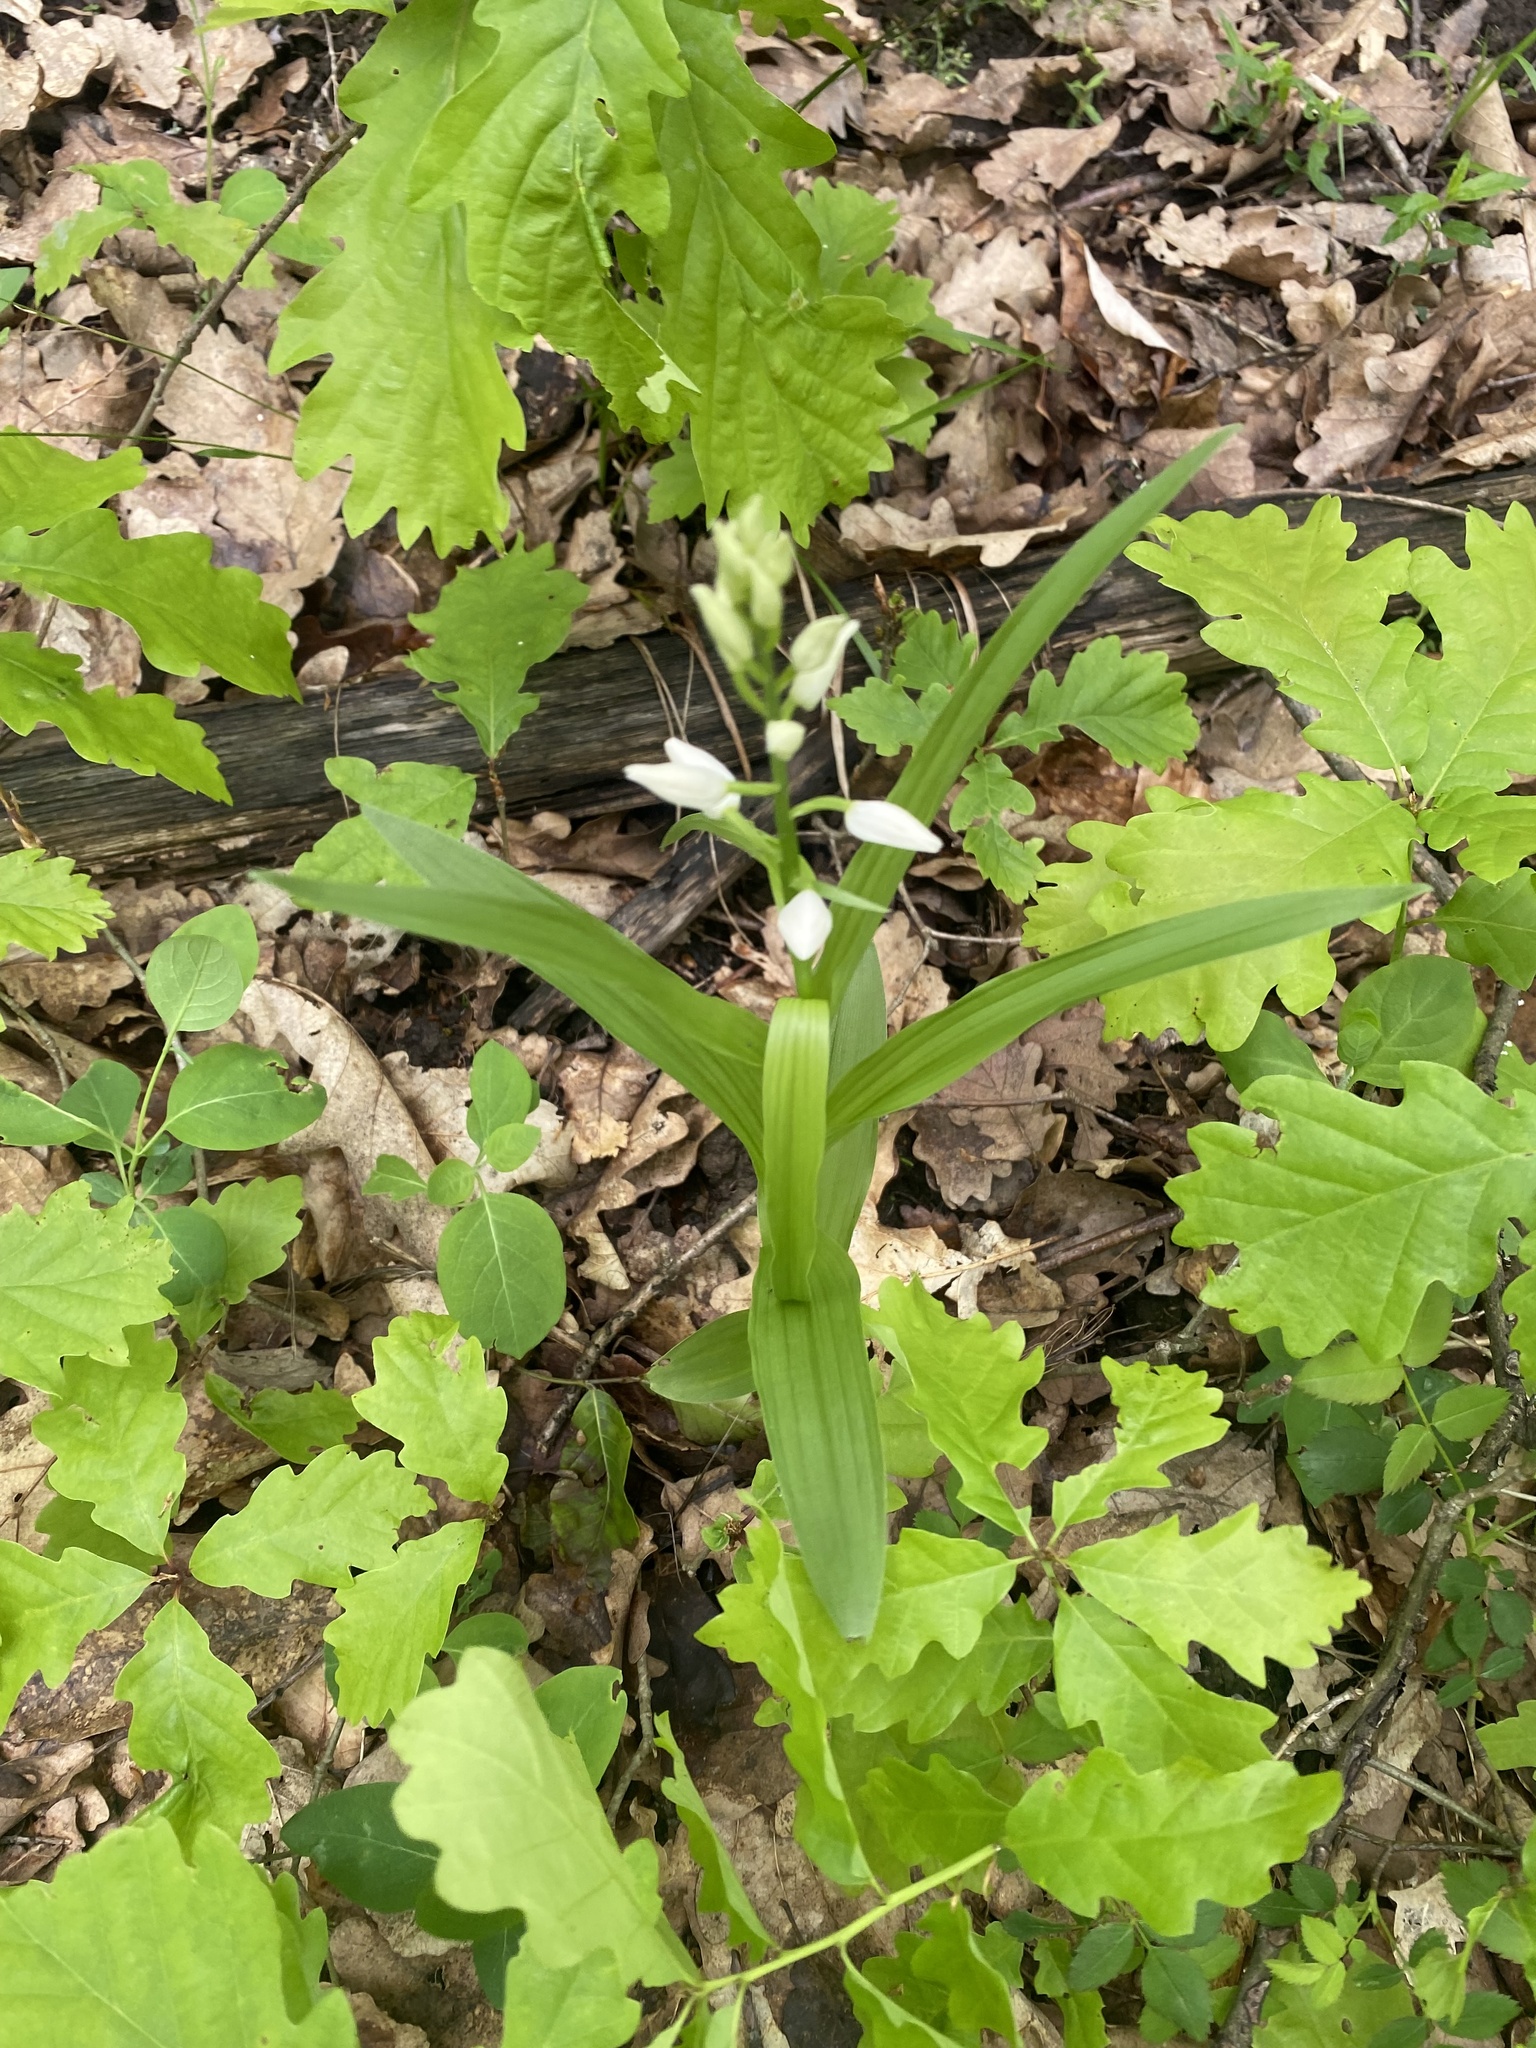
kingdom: Plantae
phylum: Tracheophyta
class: Liliopsida
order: Asparagales
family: Orchidaceae
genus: Cephalanthera
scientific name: Cephalanthera longifolia
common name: Narrow-leaved helleborine
